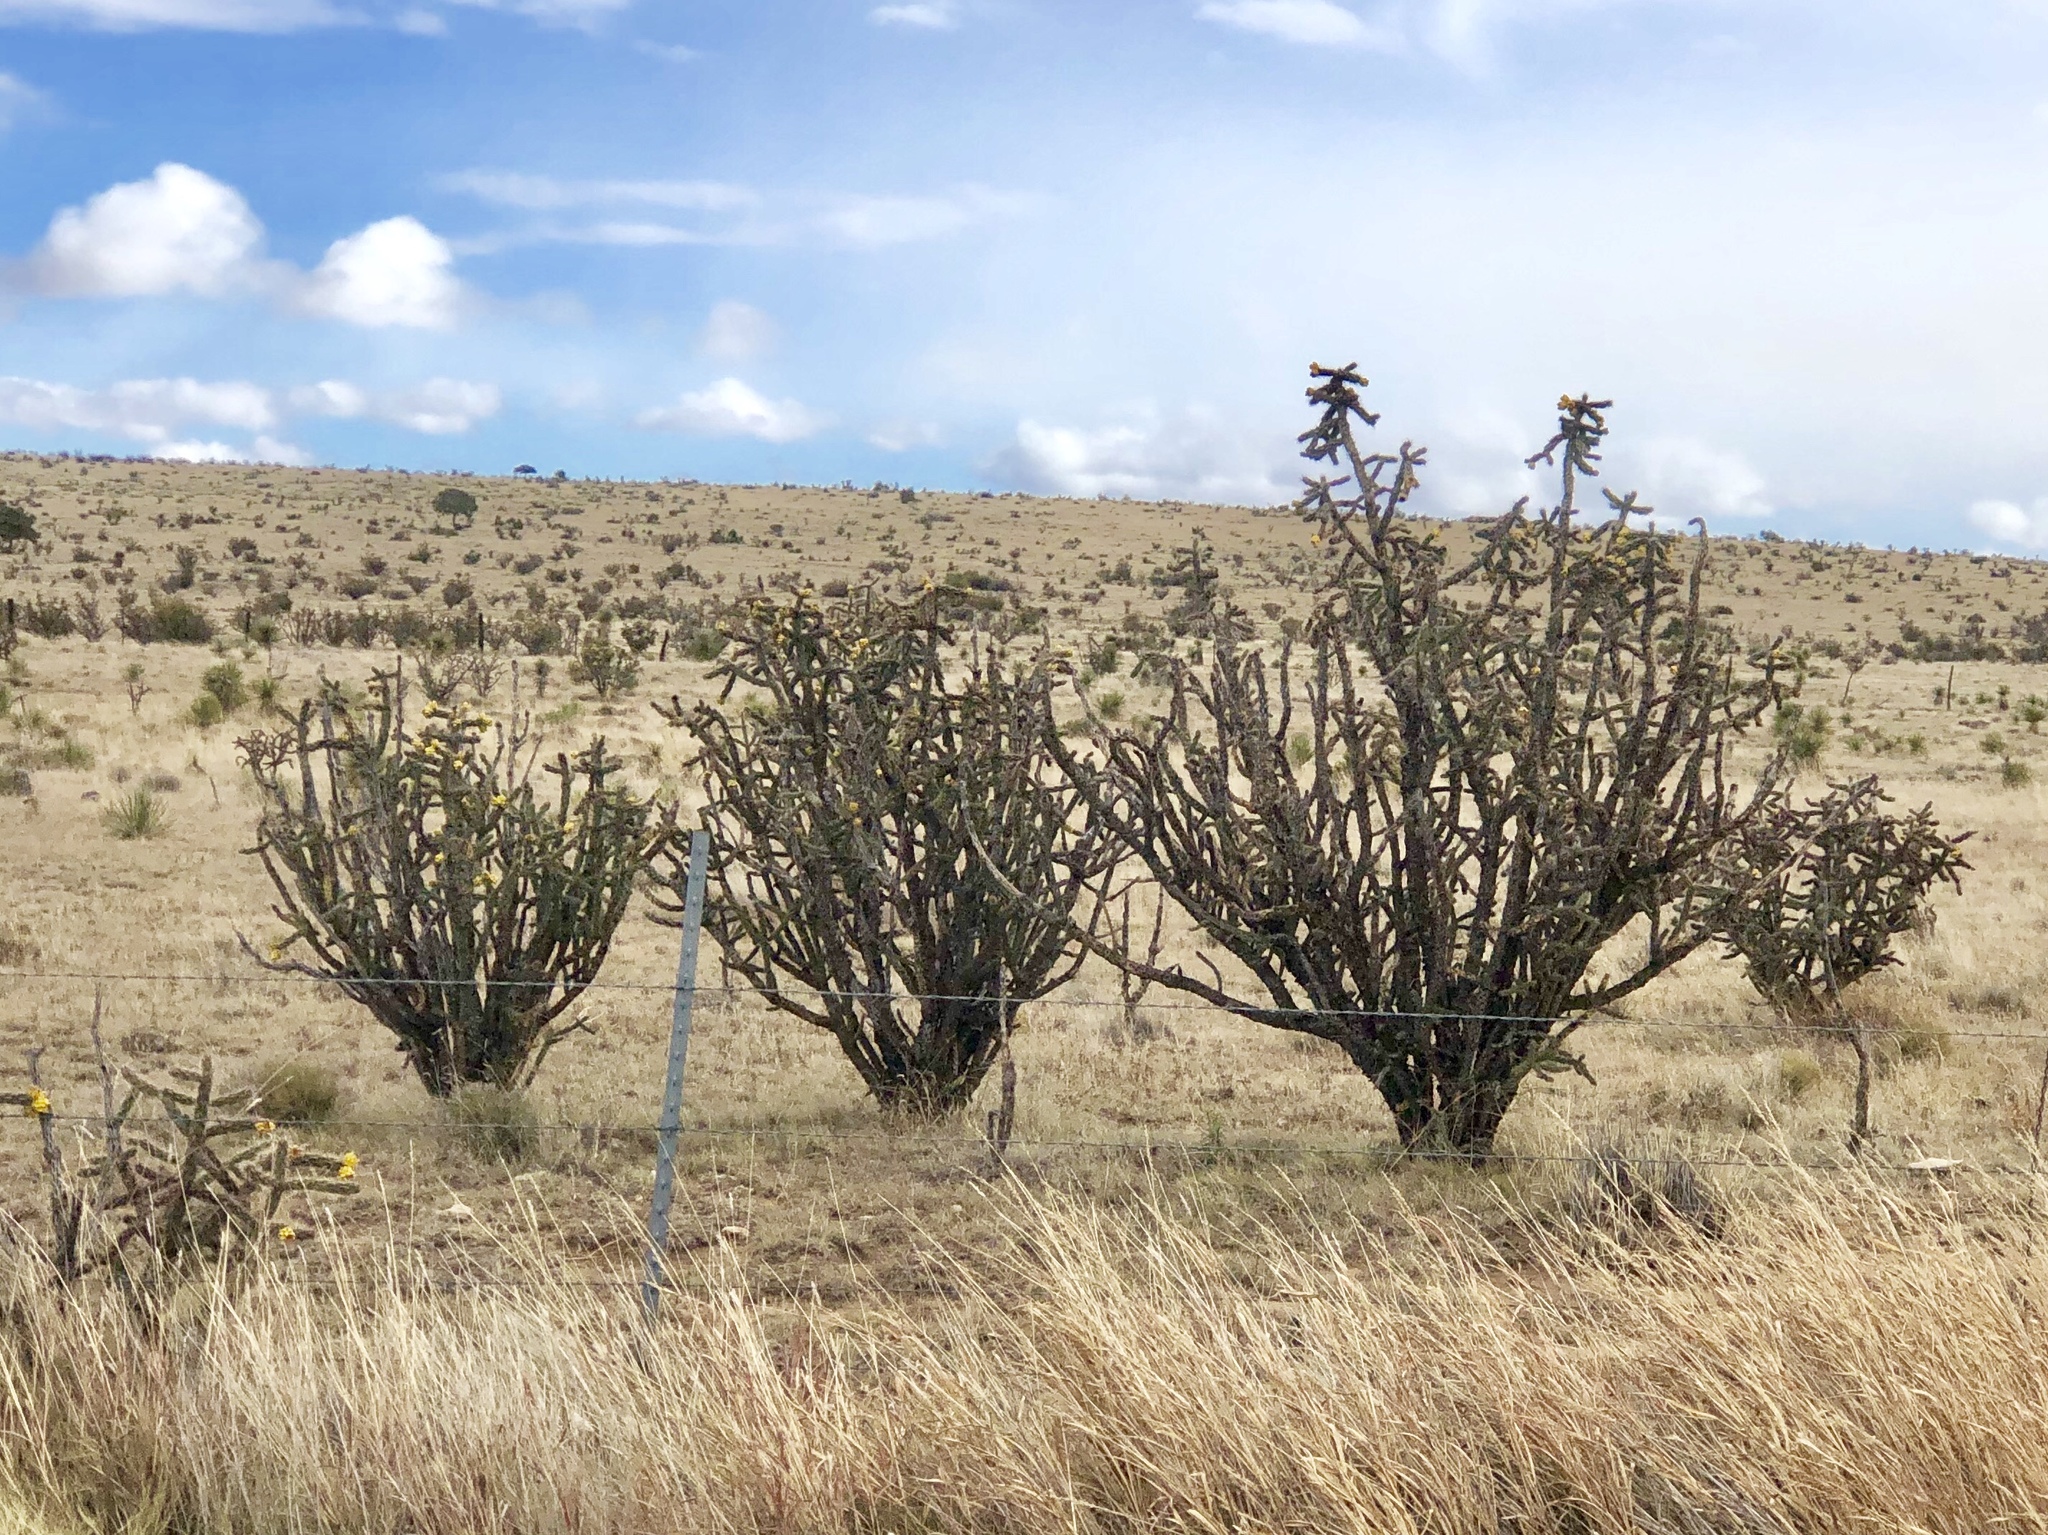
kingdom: Plantae
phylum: Tracheophyta
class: Magnoliopsida
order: Caryophyllales
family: Cactaceae
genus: Cylindropuntia
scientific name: Cylindropuntia imbricata
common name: Candelabrum cactus
